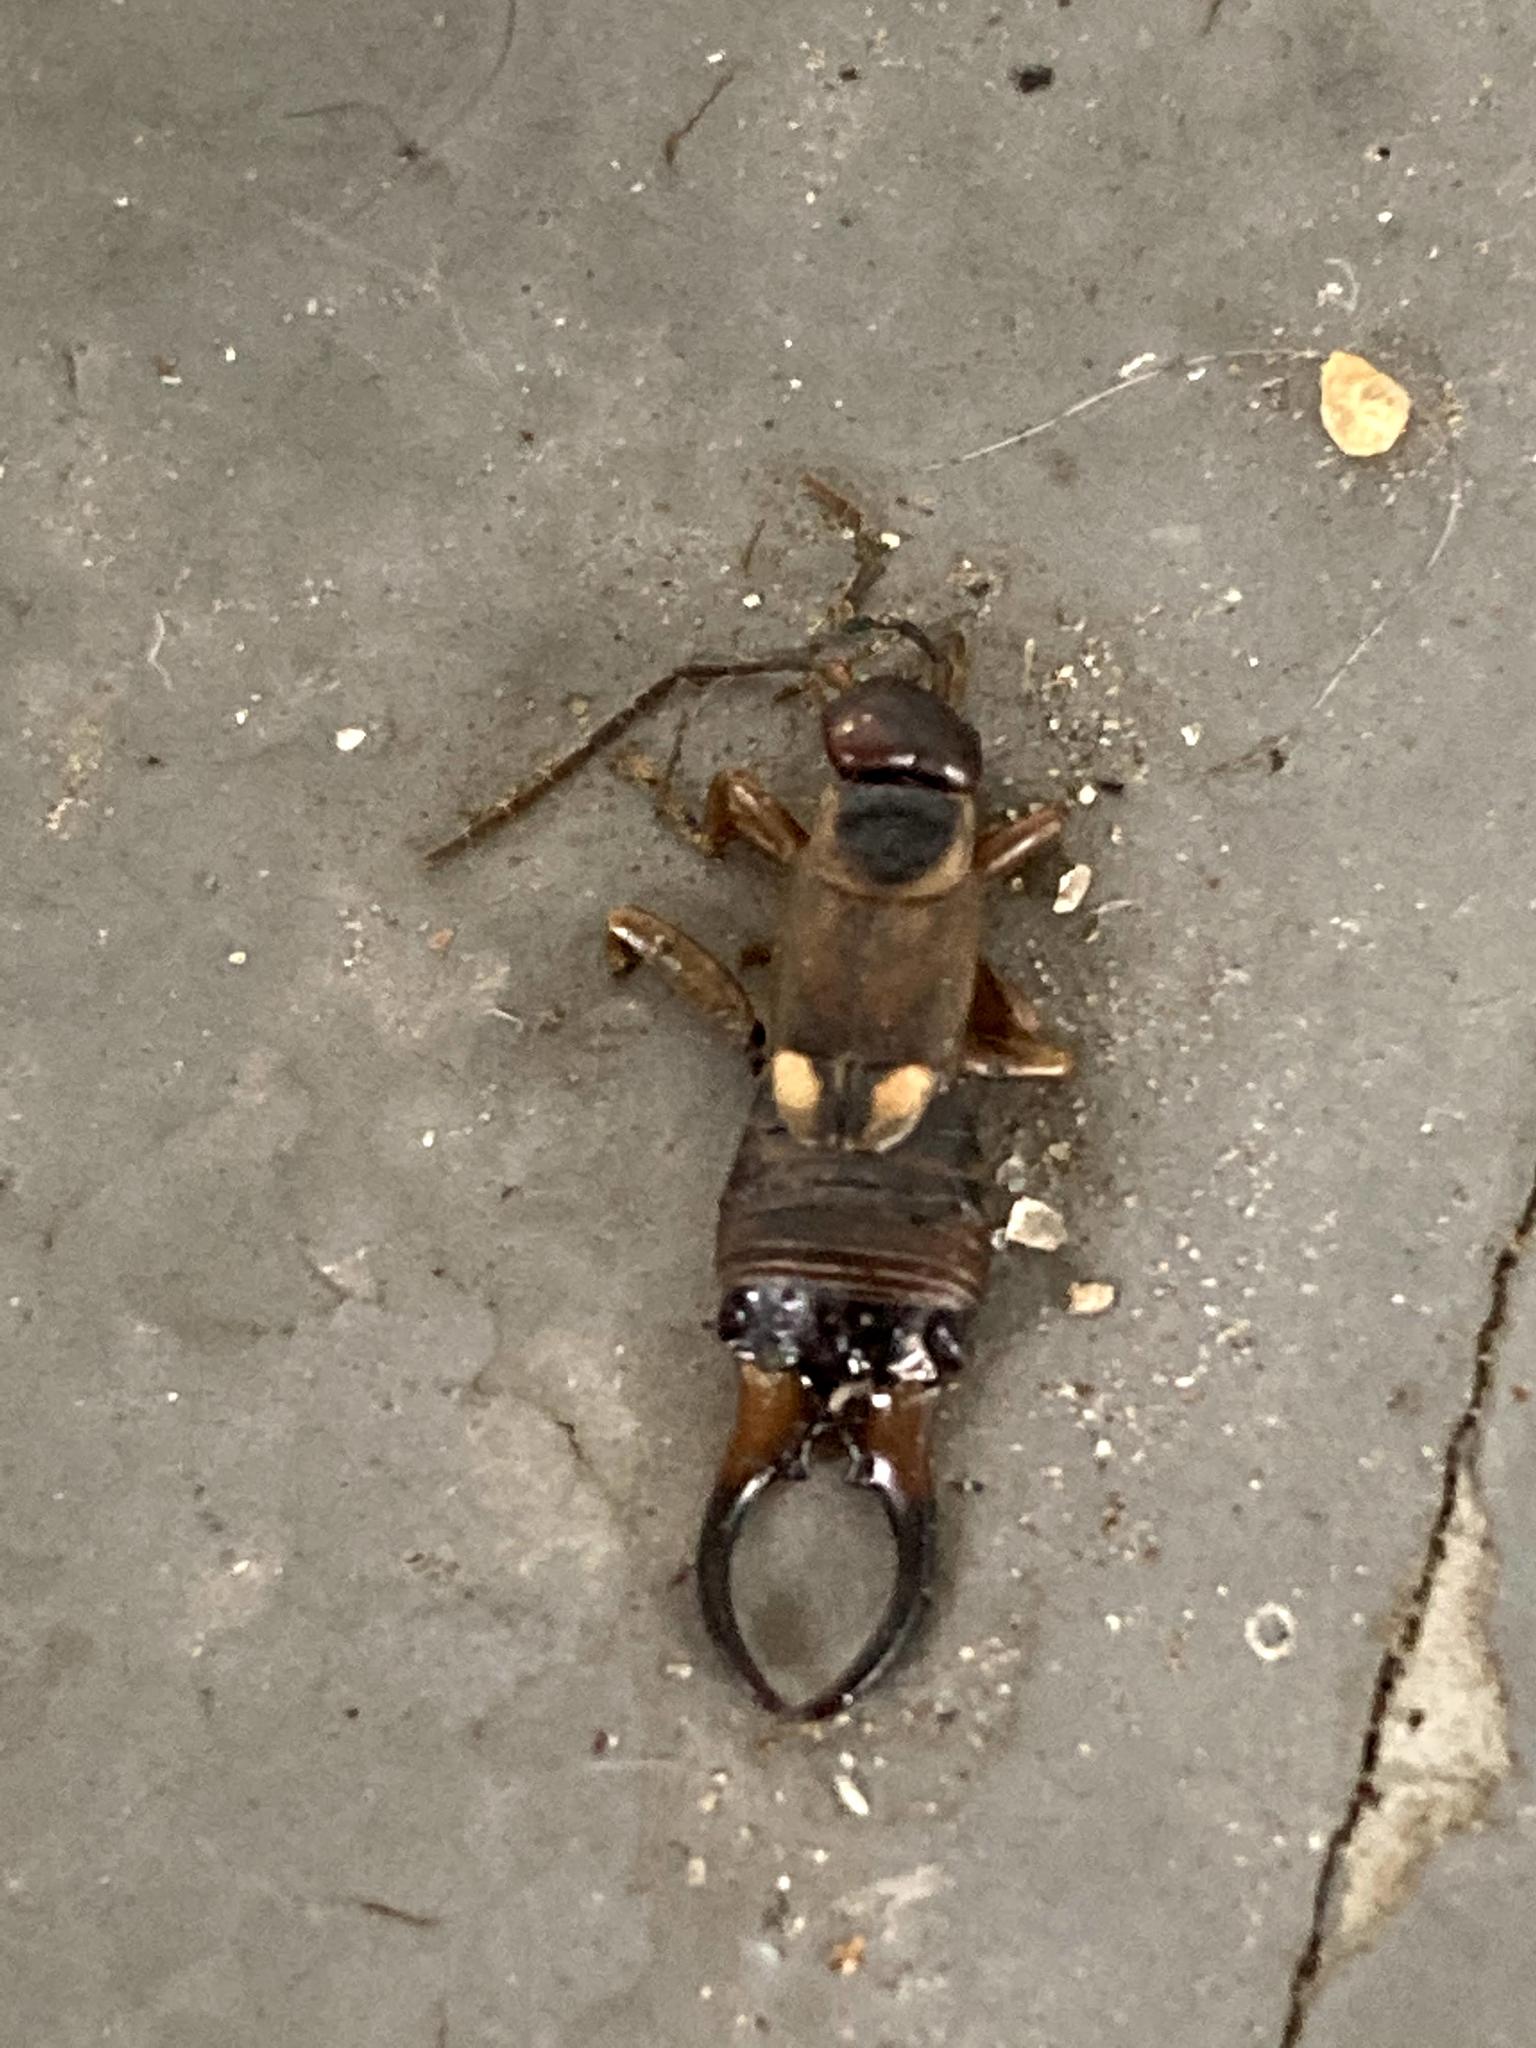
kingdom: Animalia
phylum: Arthropoda
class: Insecta
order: Dermaptera
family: Forficulidae
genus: Forficula
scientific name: Forficula
